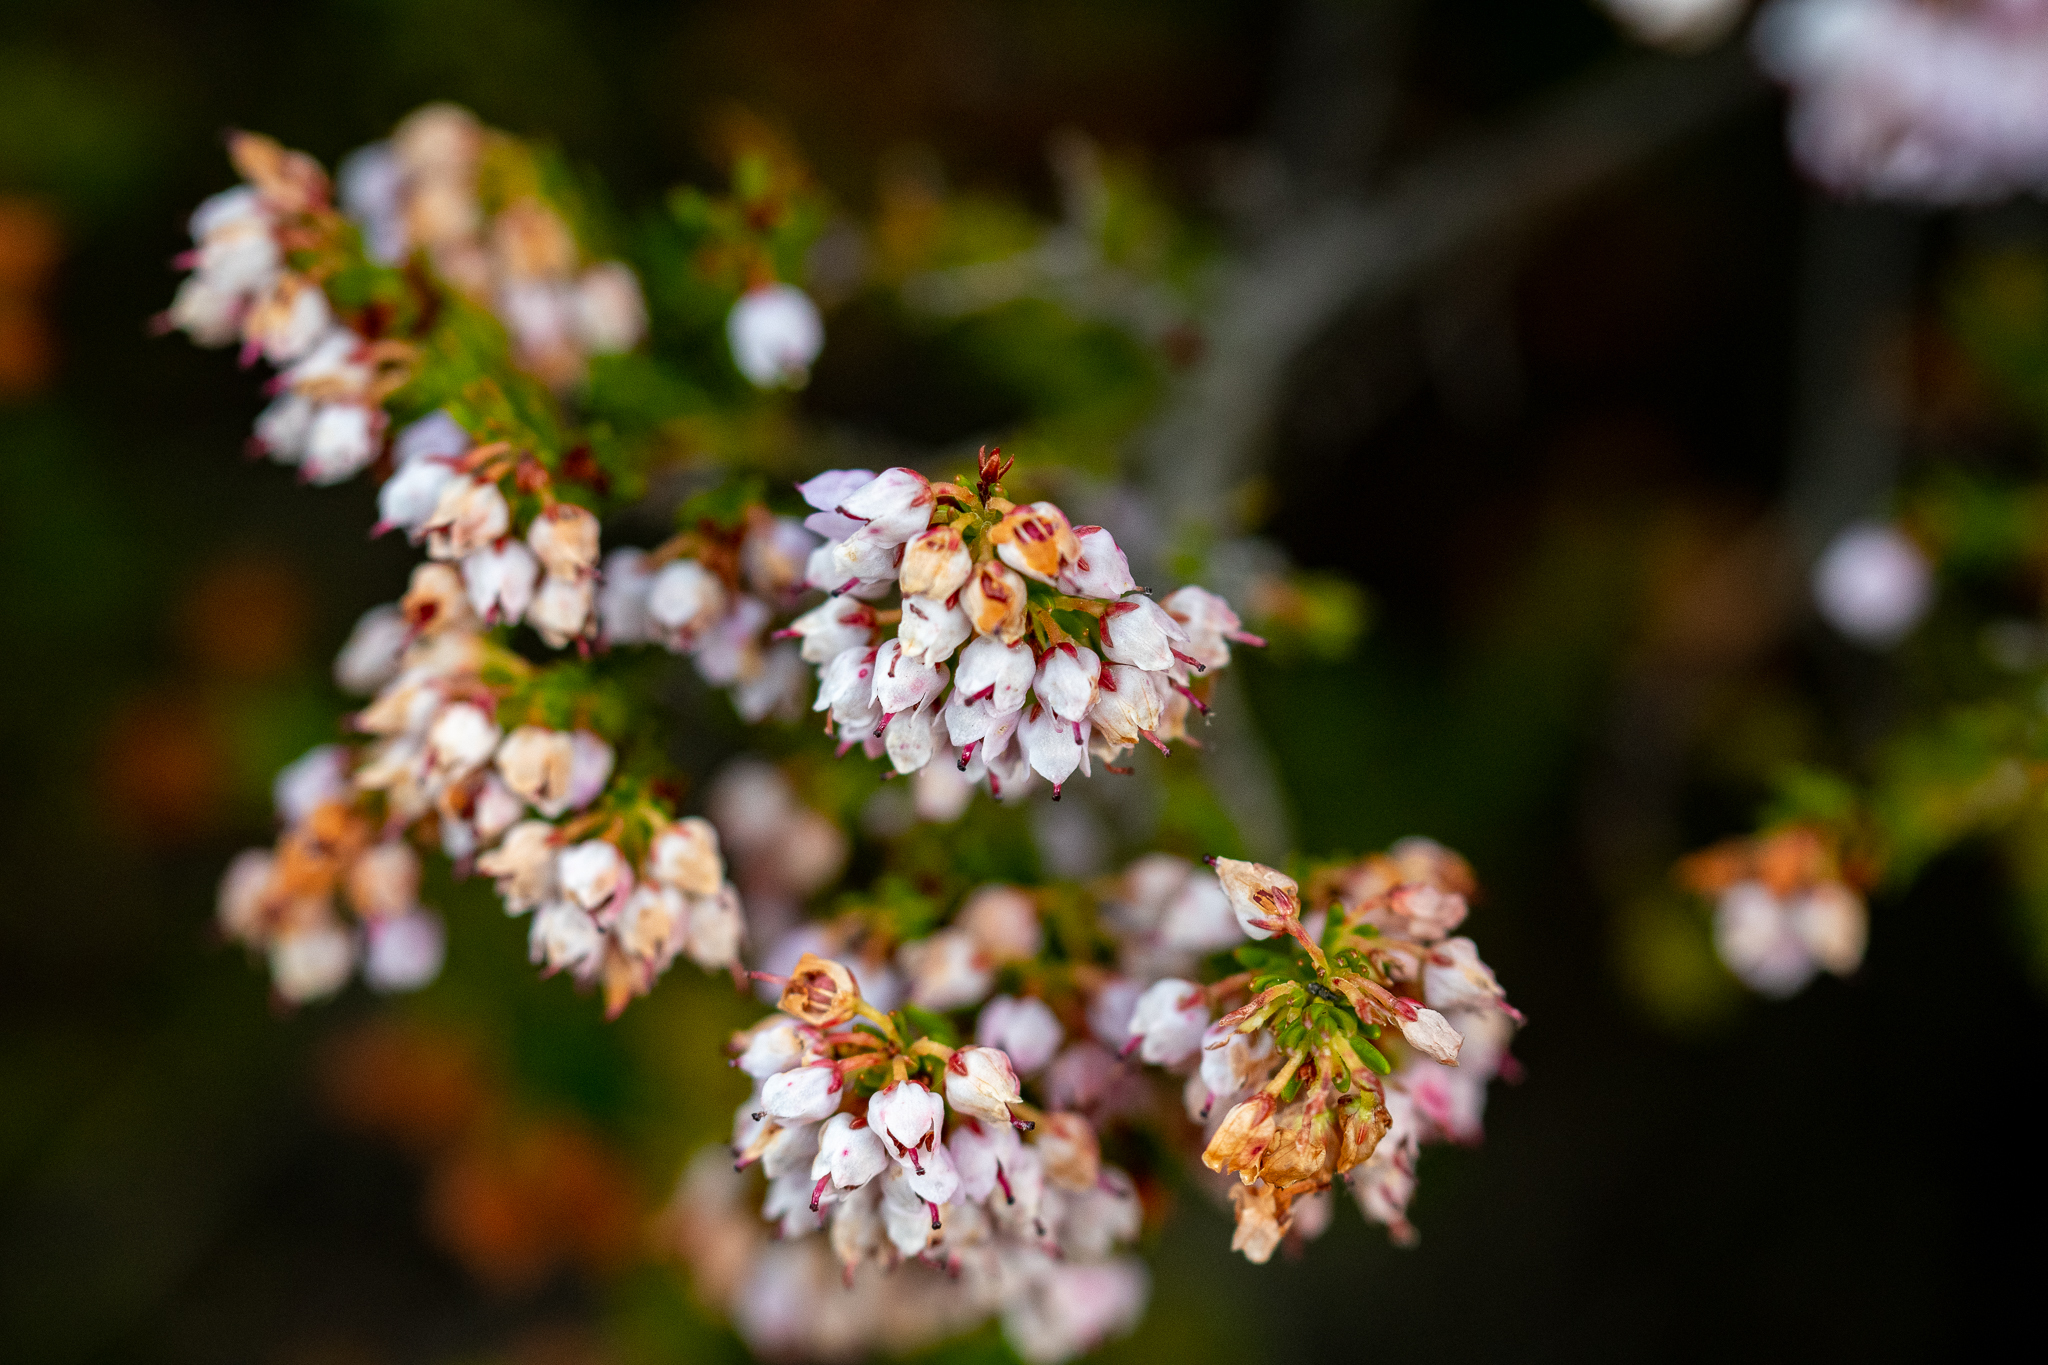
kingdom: Plantae
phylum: Tracheophyta
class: Magnoliopsida
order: Ericales
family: Ericaceae
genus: Erica
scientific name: Erica curvirostris
